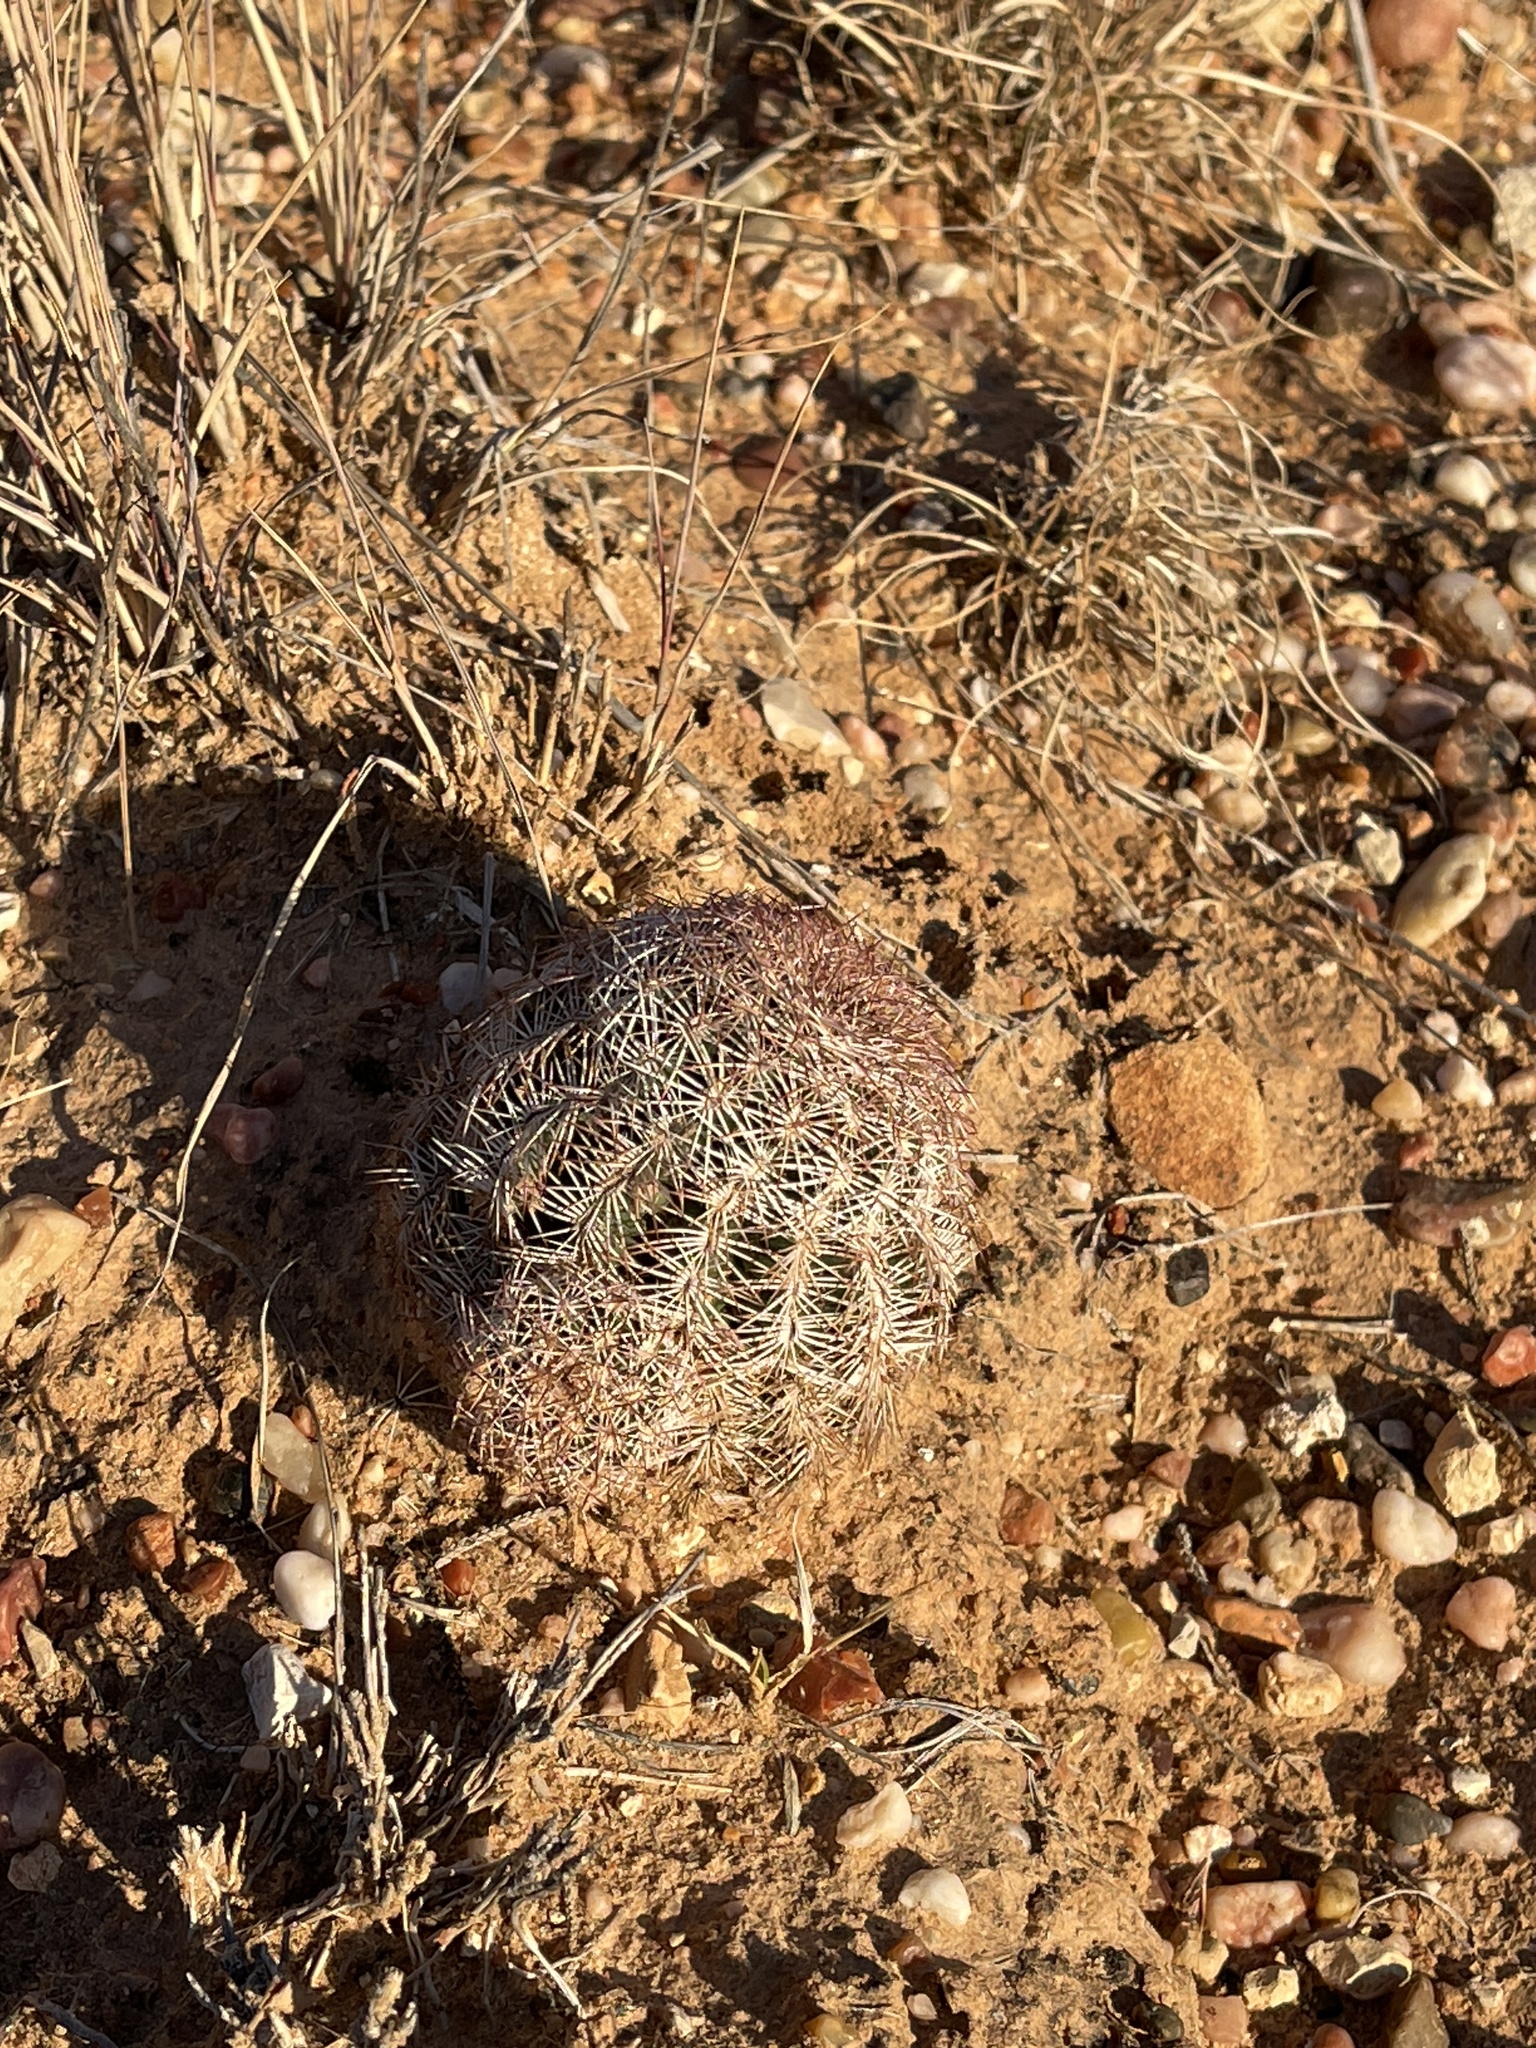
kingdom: Plantae
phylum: Tracheophyta
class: Magnoliopsida
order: Caryophyllales
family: Cactaceae
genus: Echinocereus
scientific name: Echinocereus reichenbachii
